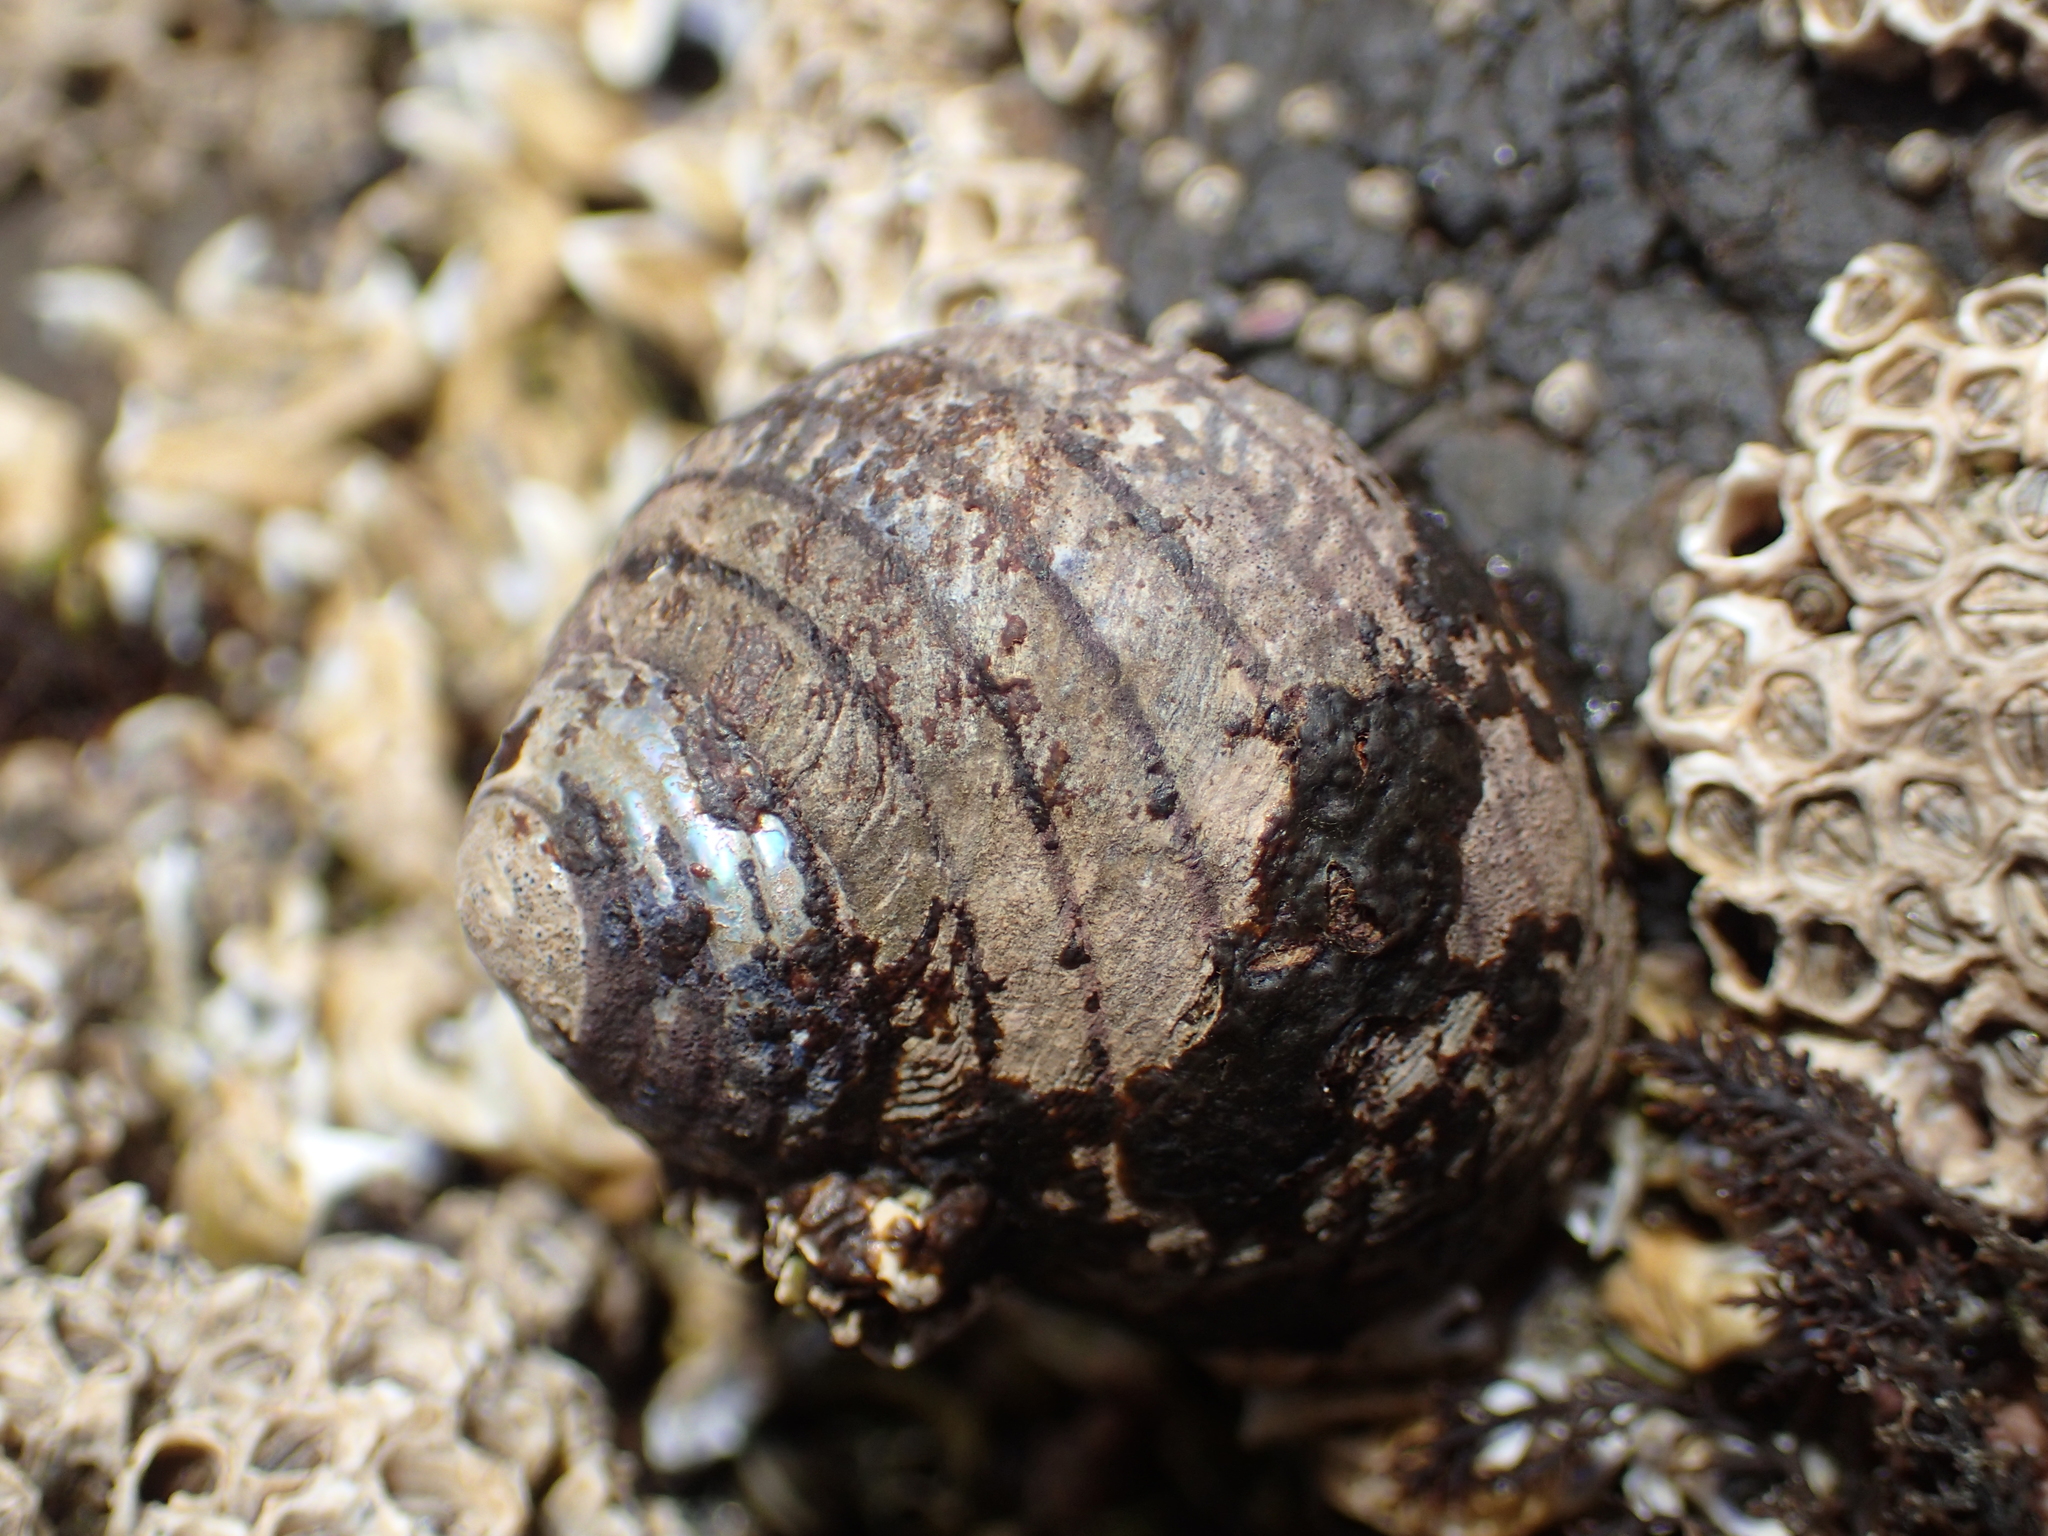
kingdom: Animalia
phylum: Mollusca
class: Gastropoda
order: Trochida
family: Trochidae
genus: Diloma
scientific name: Diloma aethiops
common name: Scorched monodont
